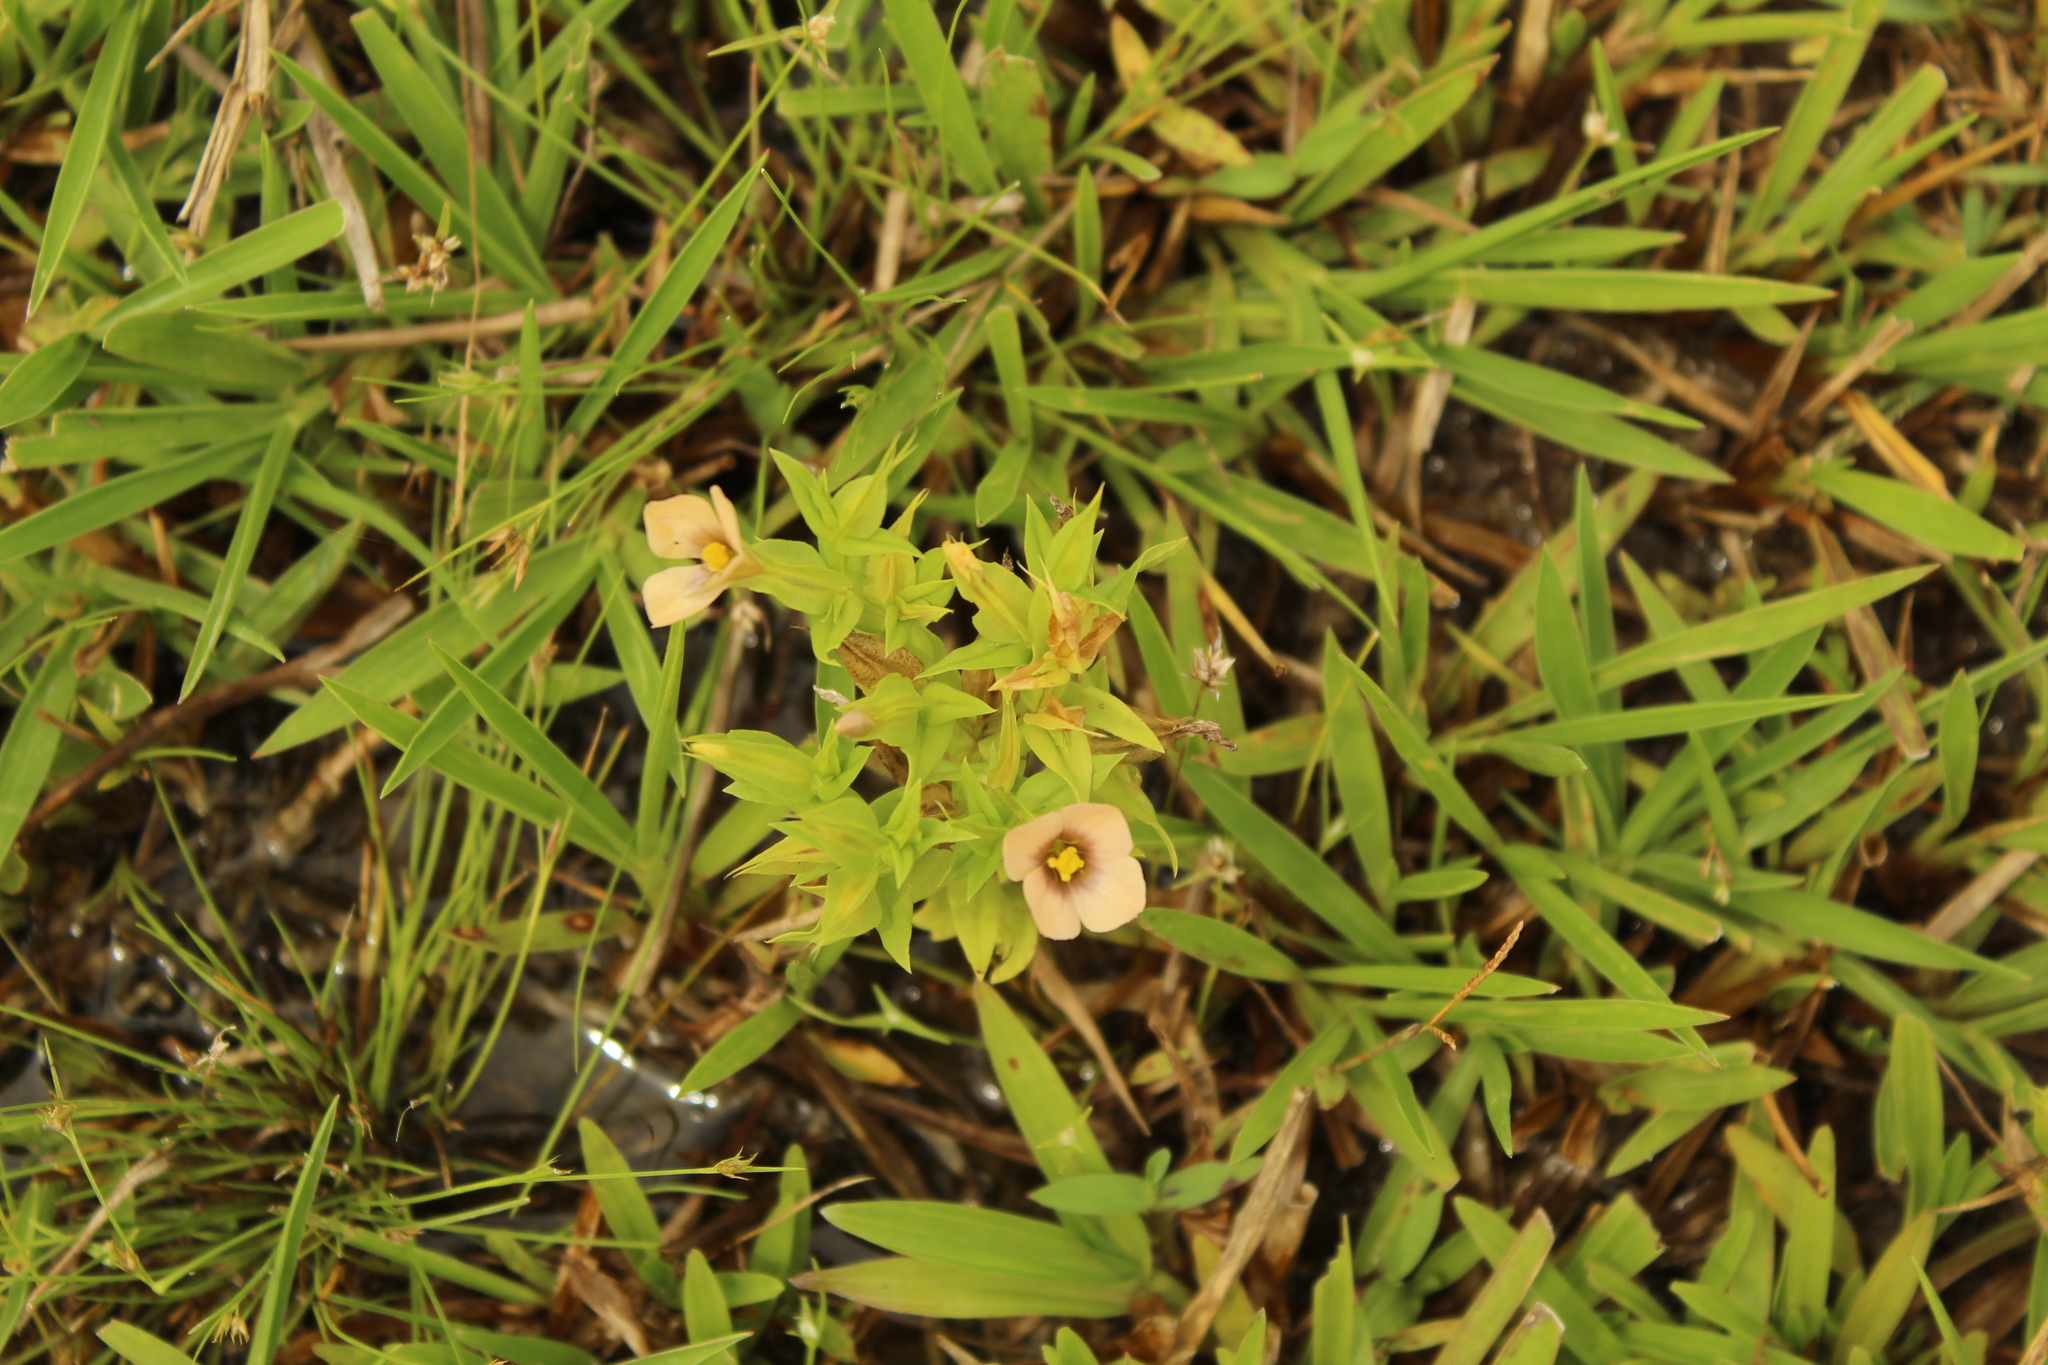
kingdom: Plantae
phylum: Tracheophyta
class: Magnoliopsida
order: Gentianales
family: Gentianaceae
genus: Schultesia
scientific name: Schultesia guianensis
